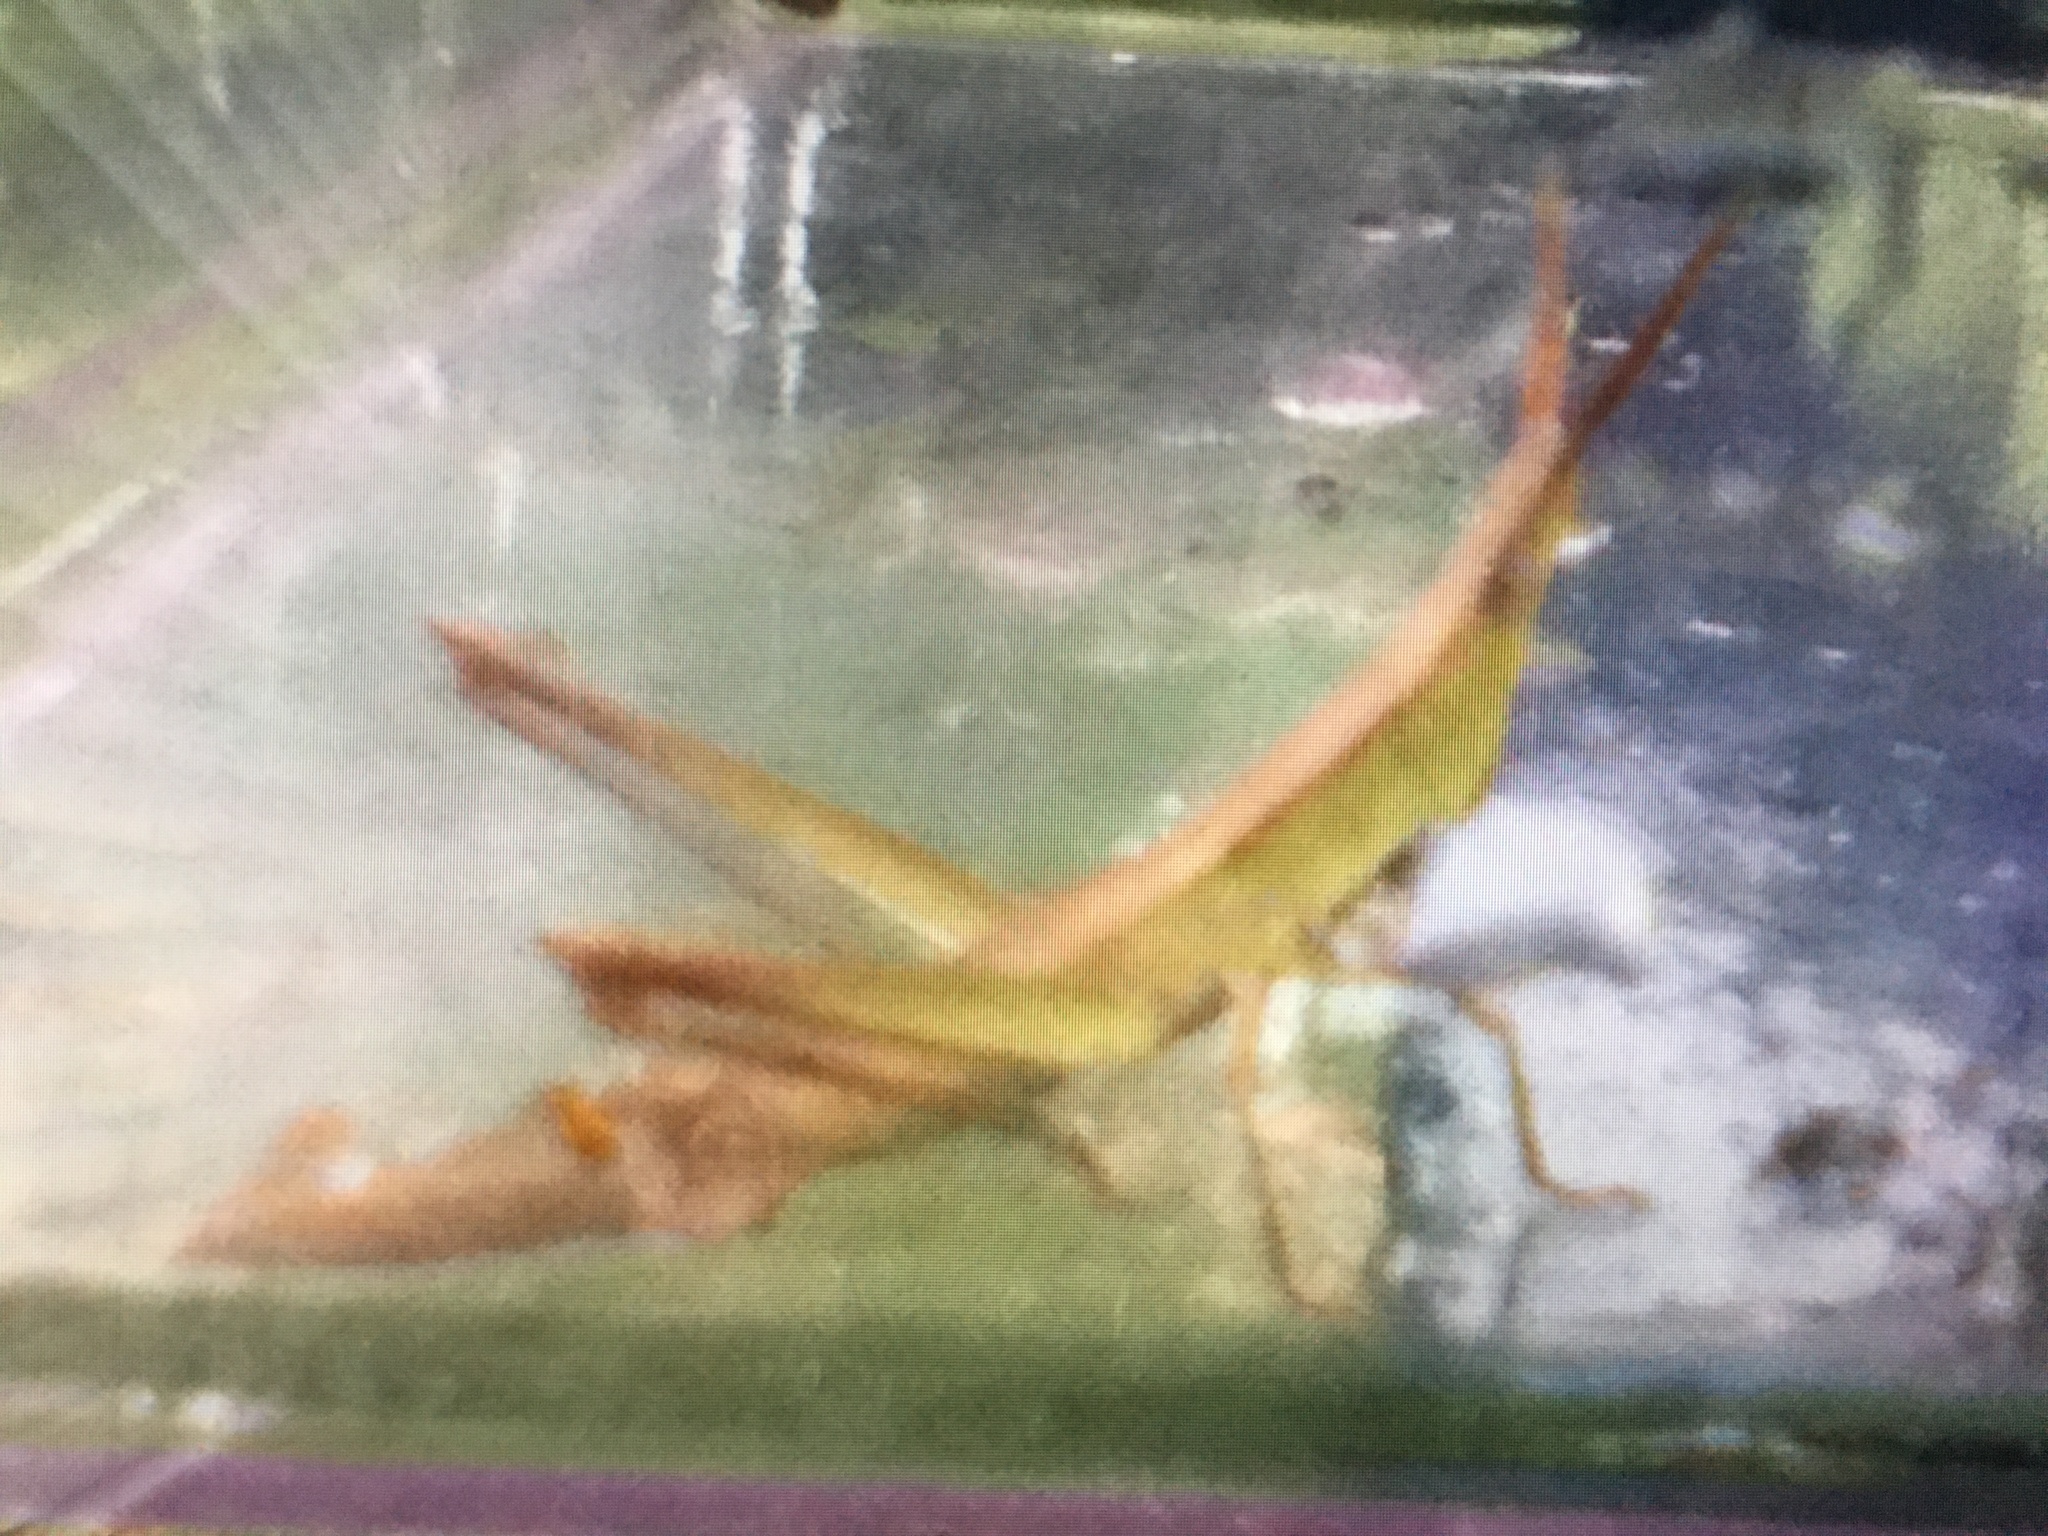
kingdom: Animalia
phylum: Arthropoda
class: Insecta
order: Orthoptera
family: Acrididae
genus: Achurum
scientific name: Achurum carinatum
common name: Long-headed toothpick grasshopper
